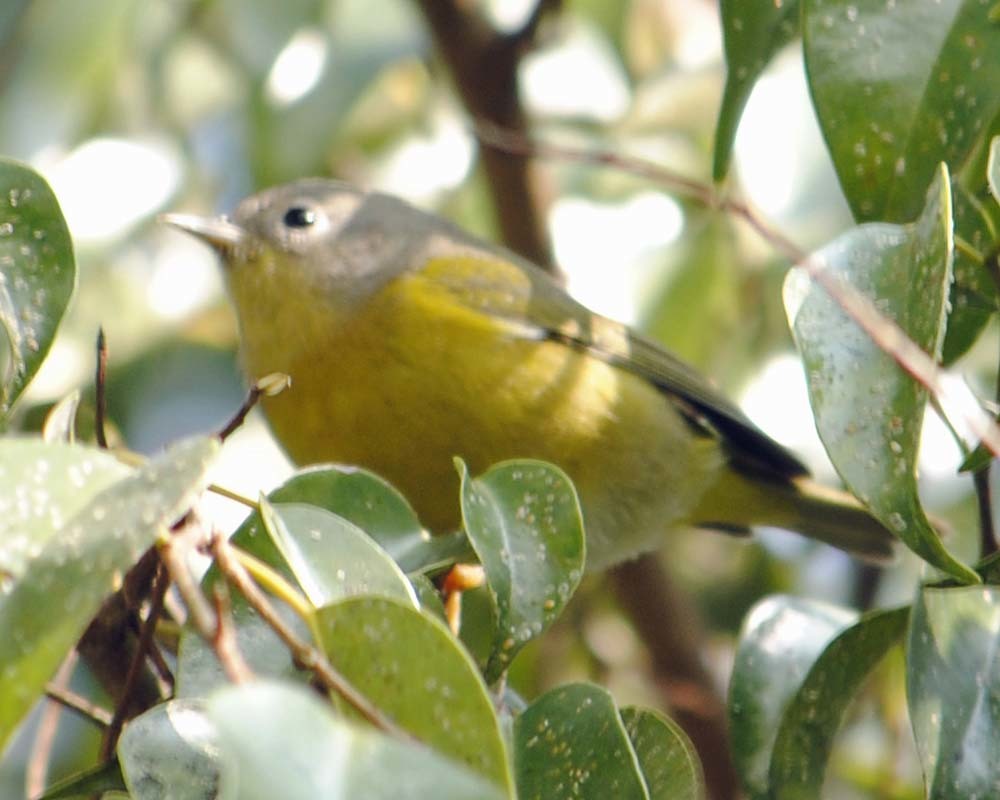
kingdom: Animalia
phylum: Chordata
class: Aves
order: Passeriformes
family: Parulidae
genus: Leiothlypis
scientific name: Leiothlypis ruficapilla
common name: Nashville warbler
